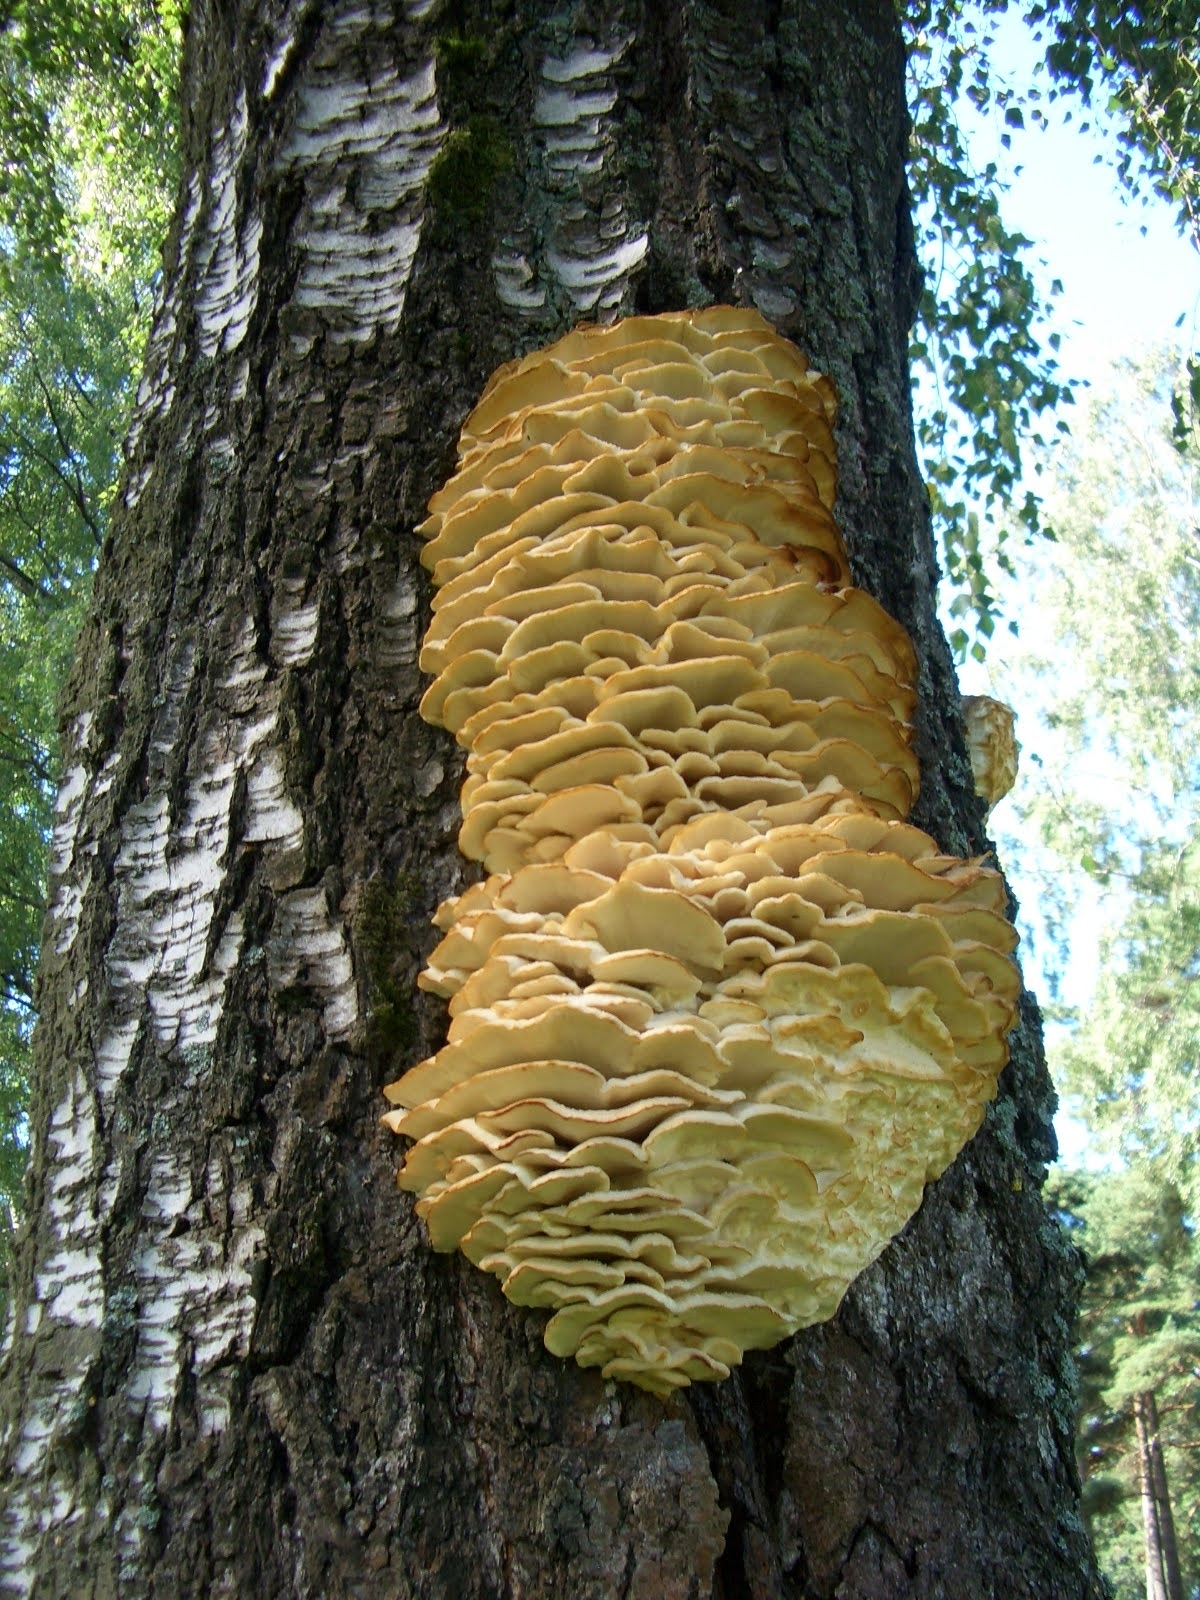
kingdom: Fungi
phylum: Basidiomycota
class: Agaricomycetes
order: Polyporales
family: Meruliaceae
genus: Climacodon
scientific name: Climacodon septentrionalis
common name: Northern tooth
